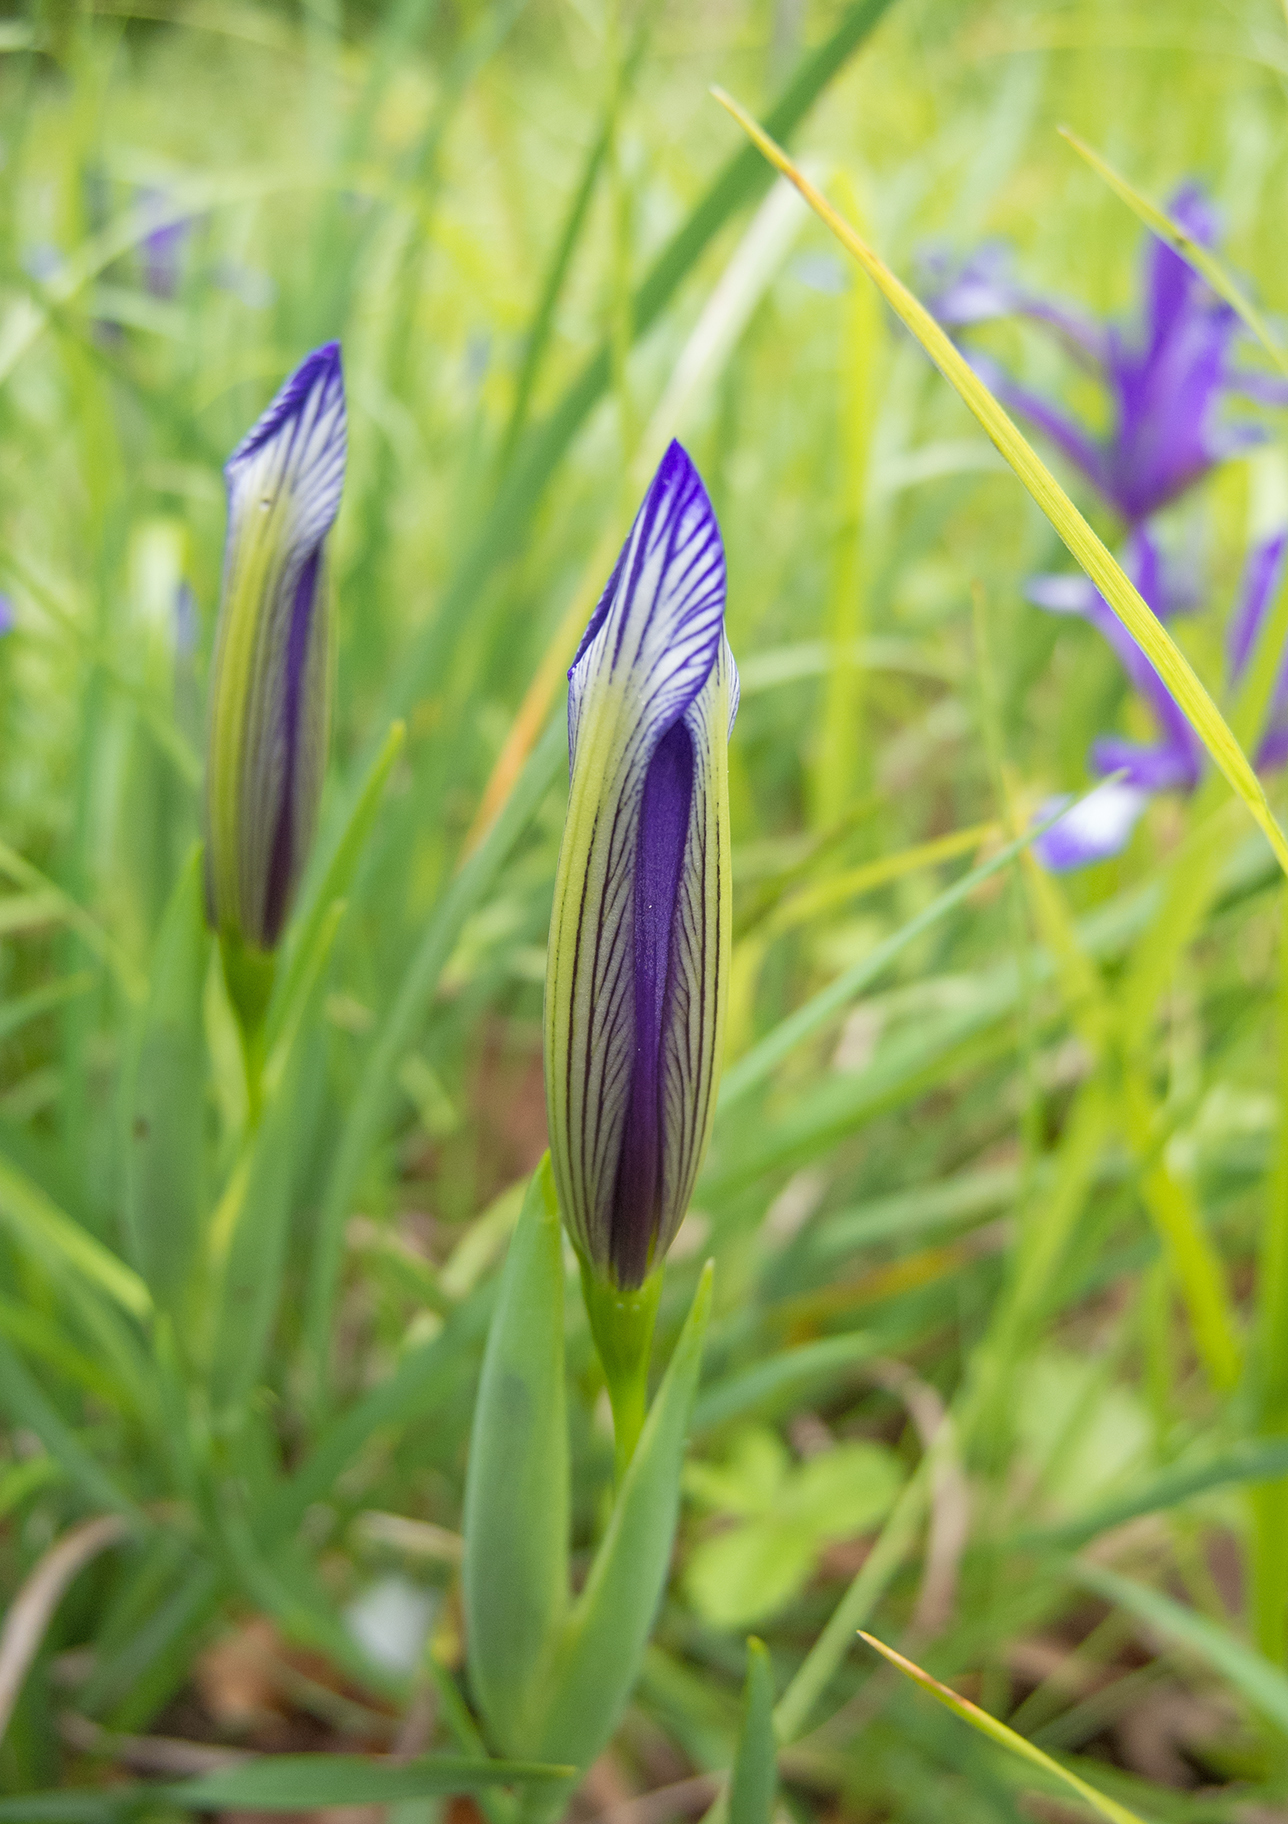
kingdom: Plantae
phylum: Tracheophyta
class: Liliopsida
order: Asparagales
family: Iridaceae
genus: Iris
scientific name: Iris sintenisii
